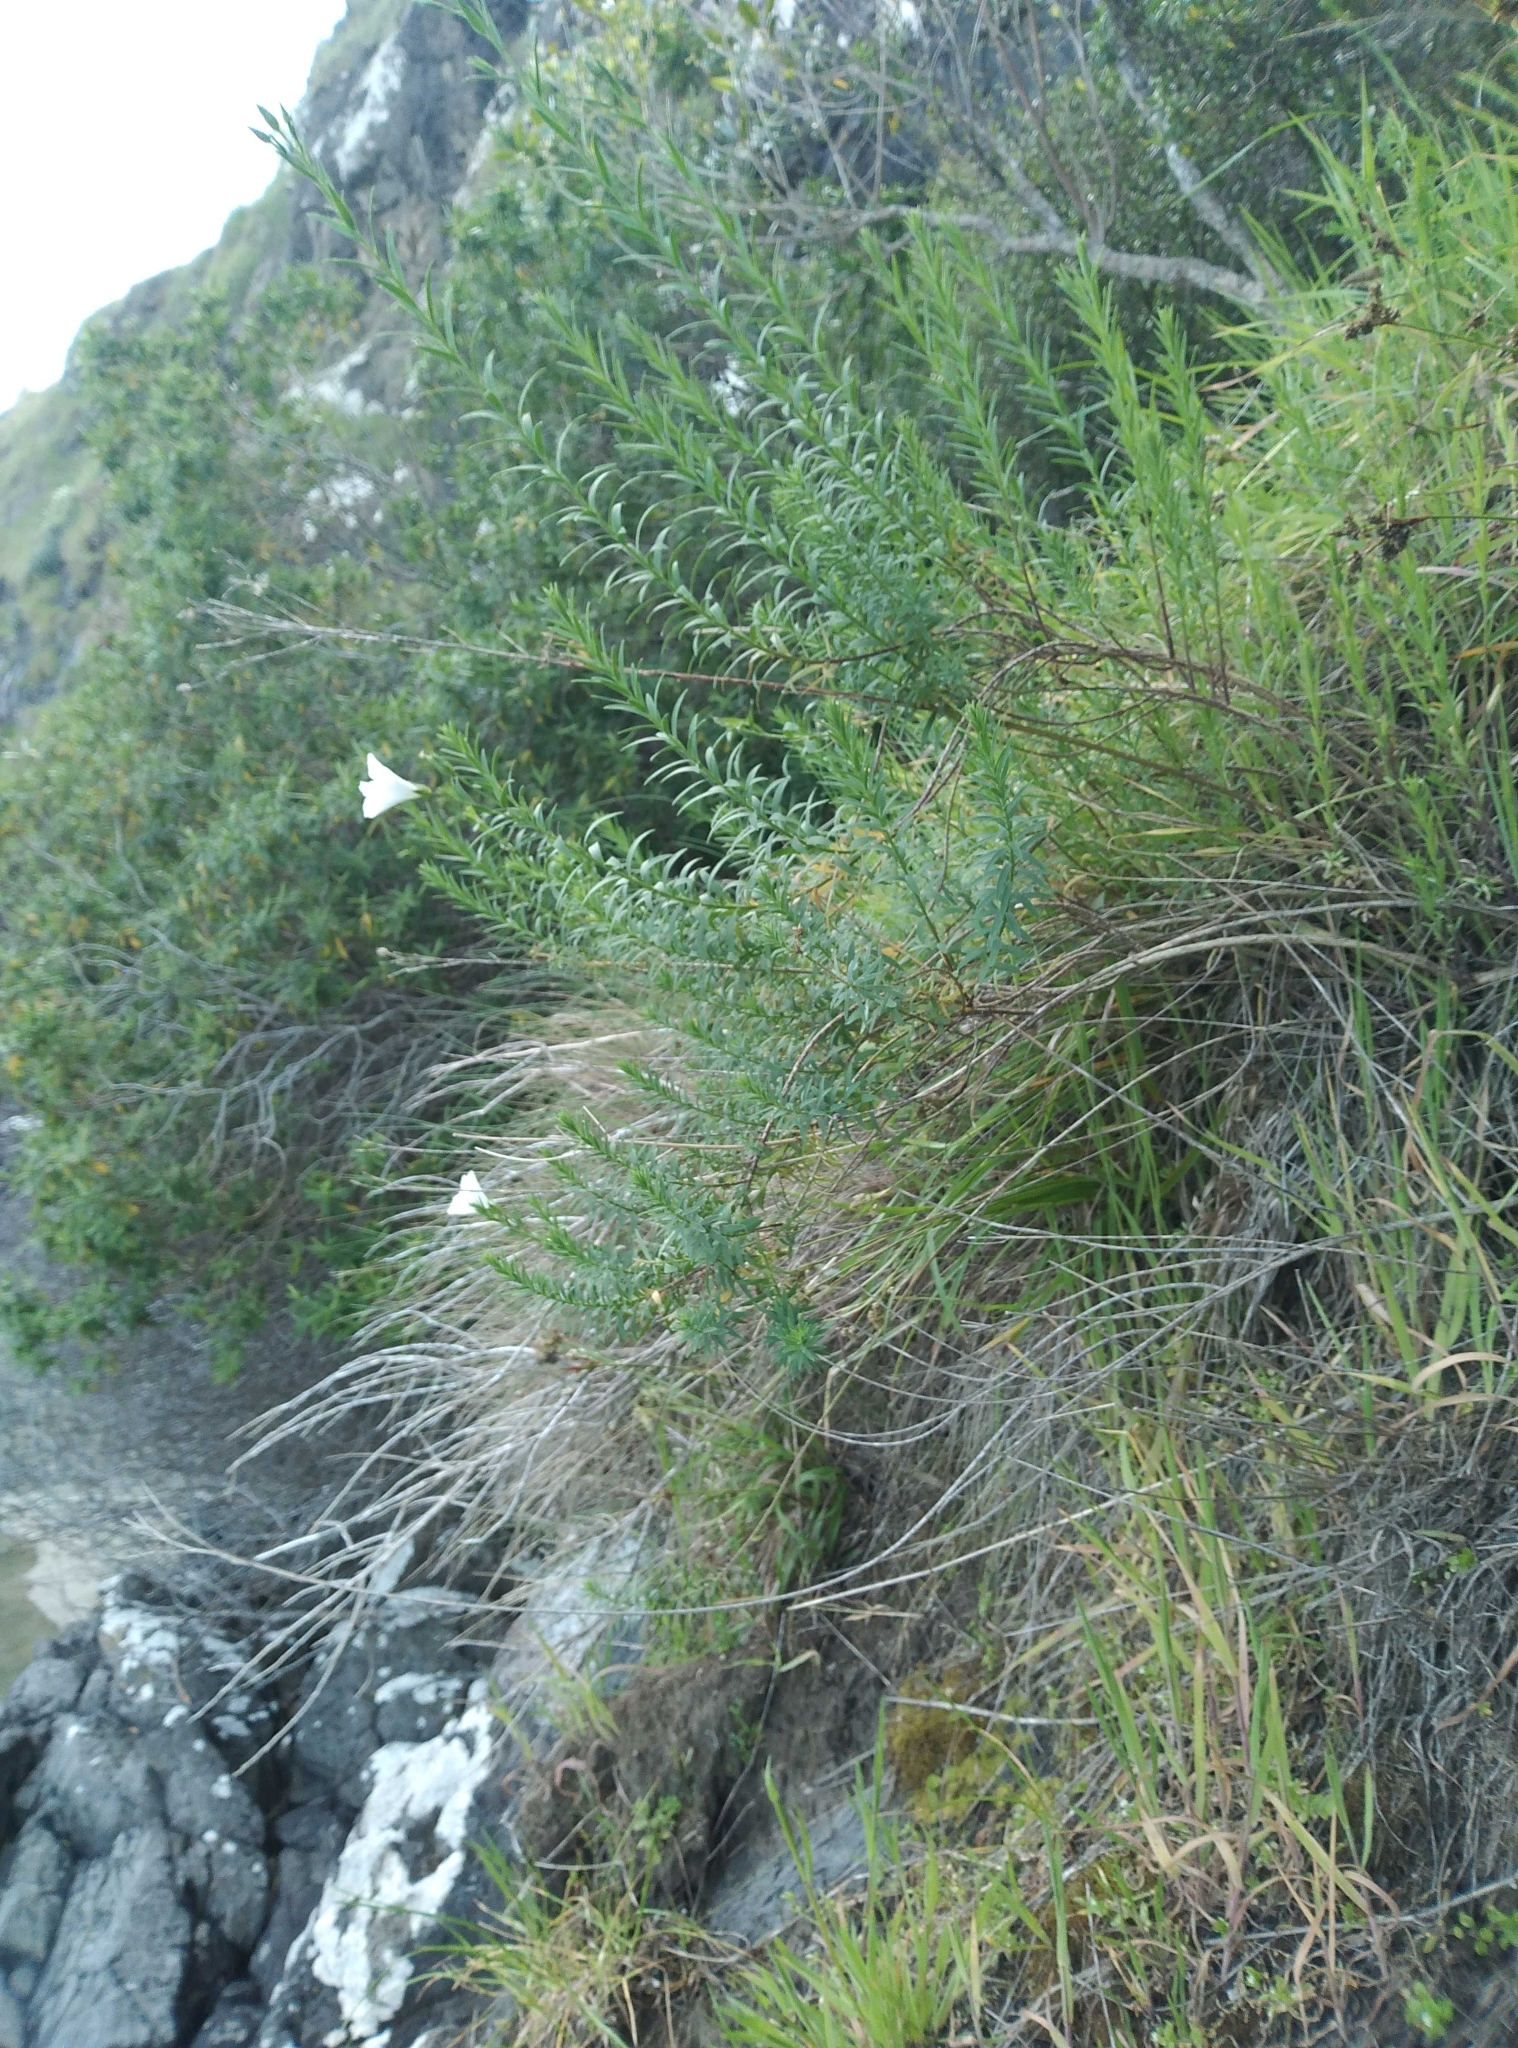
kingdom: Plantae
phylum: Tracheophyta
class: Magnoliopsida
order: Malpighiales
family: Linaceae
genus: Linum
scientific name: Linum monogynum
